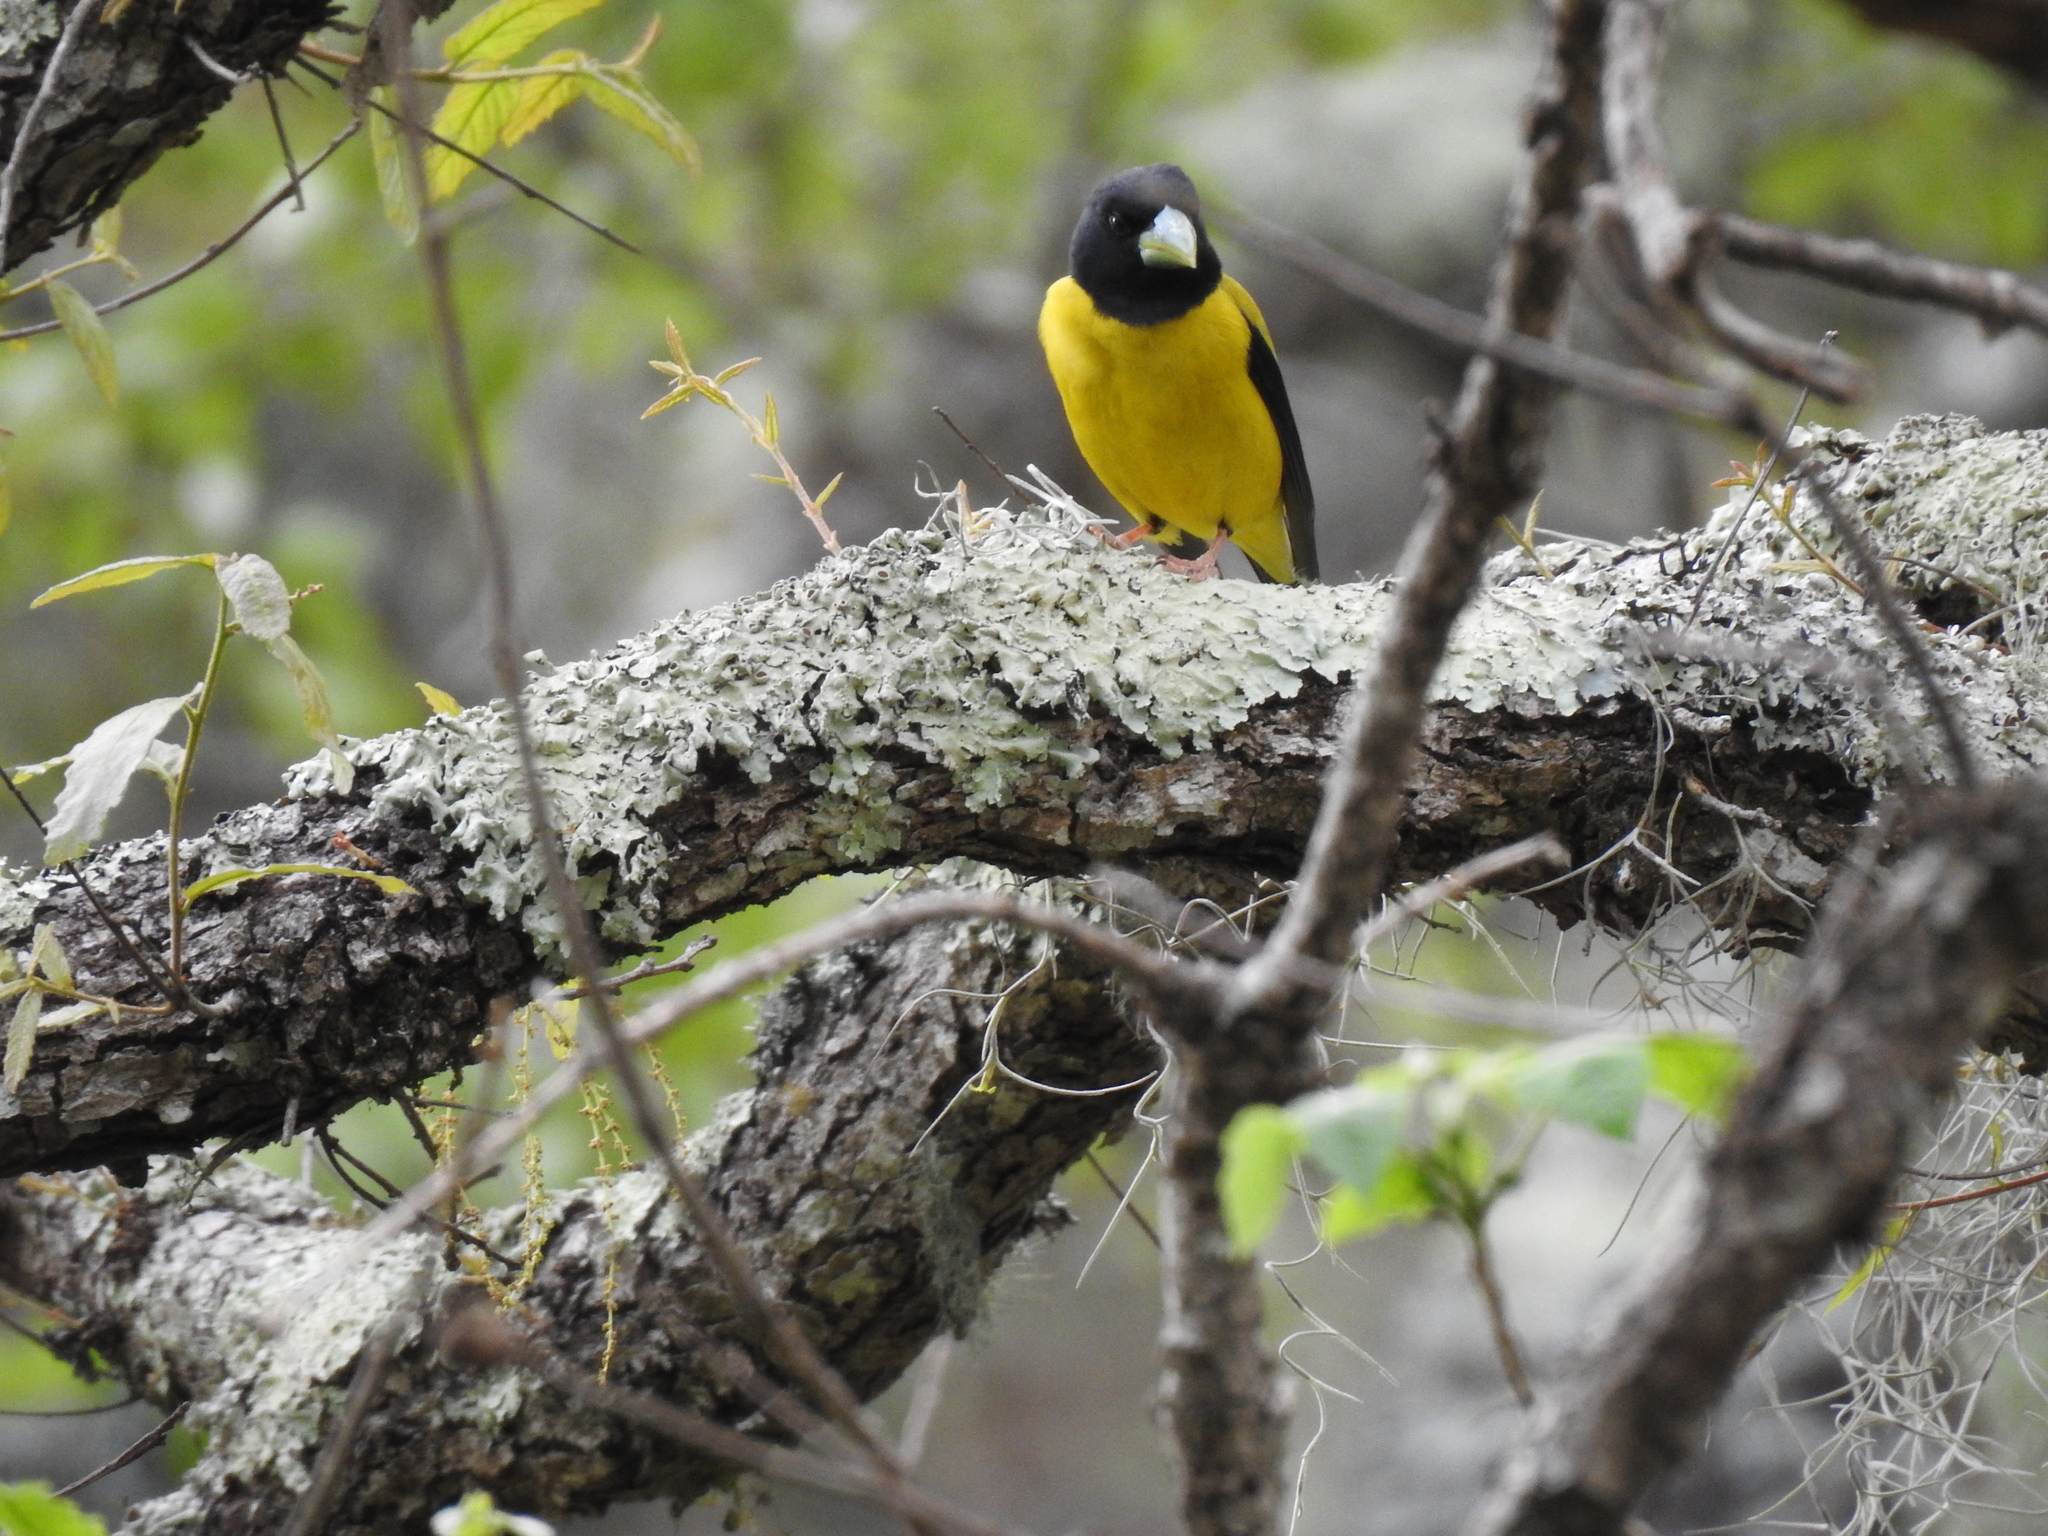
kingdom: Animalia
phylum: Chordata
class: Aves
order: Passeriformes
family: Fringillidae
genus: Hesperiphona
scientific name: Hesperiphona abeillei
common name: Hooded grosbeak
